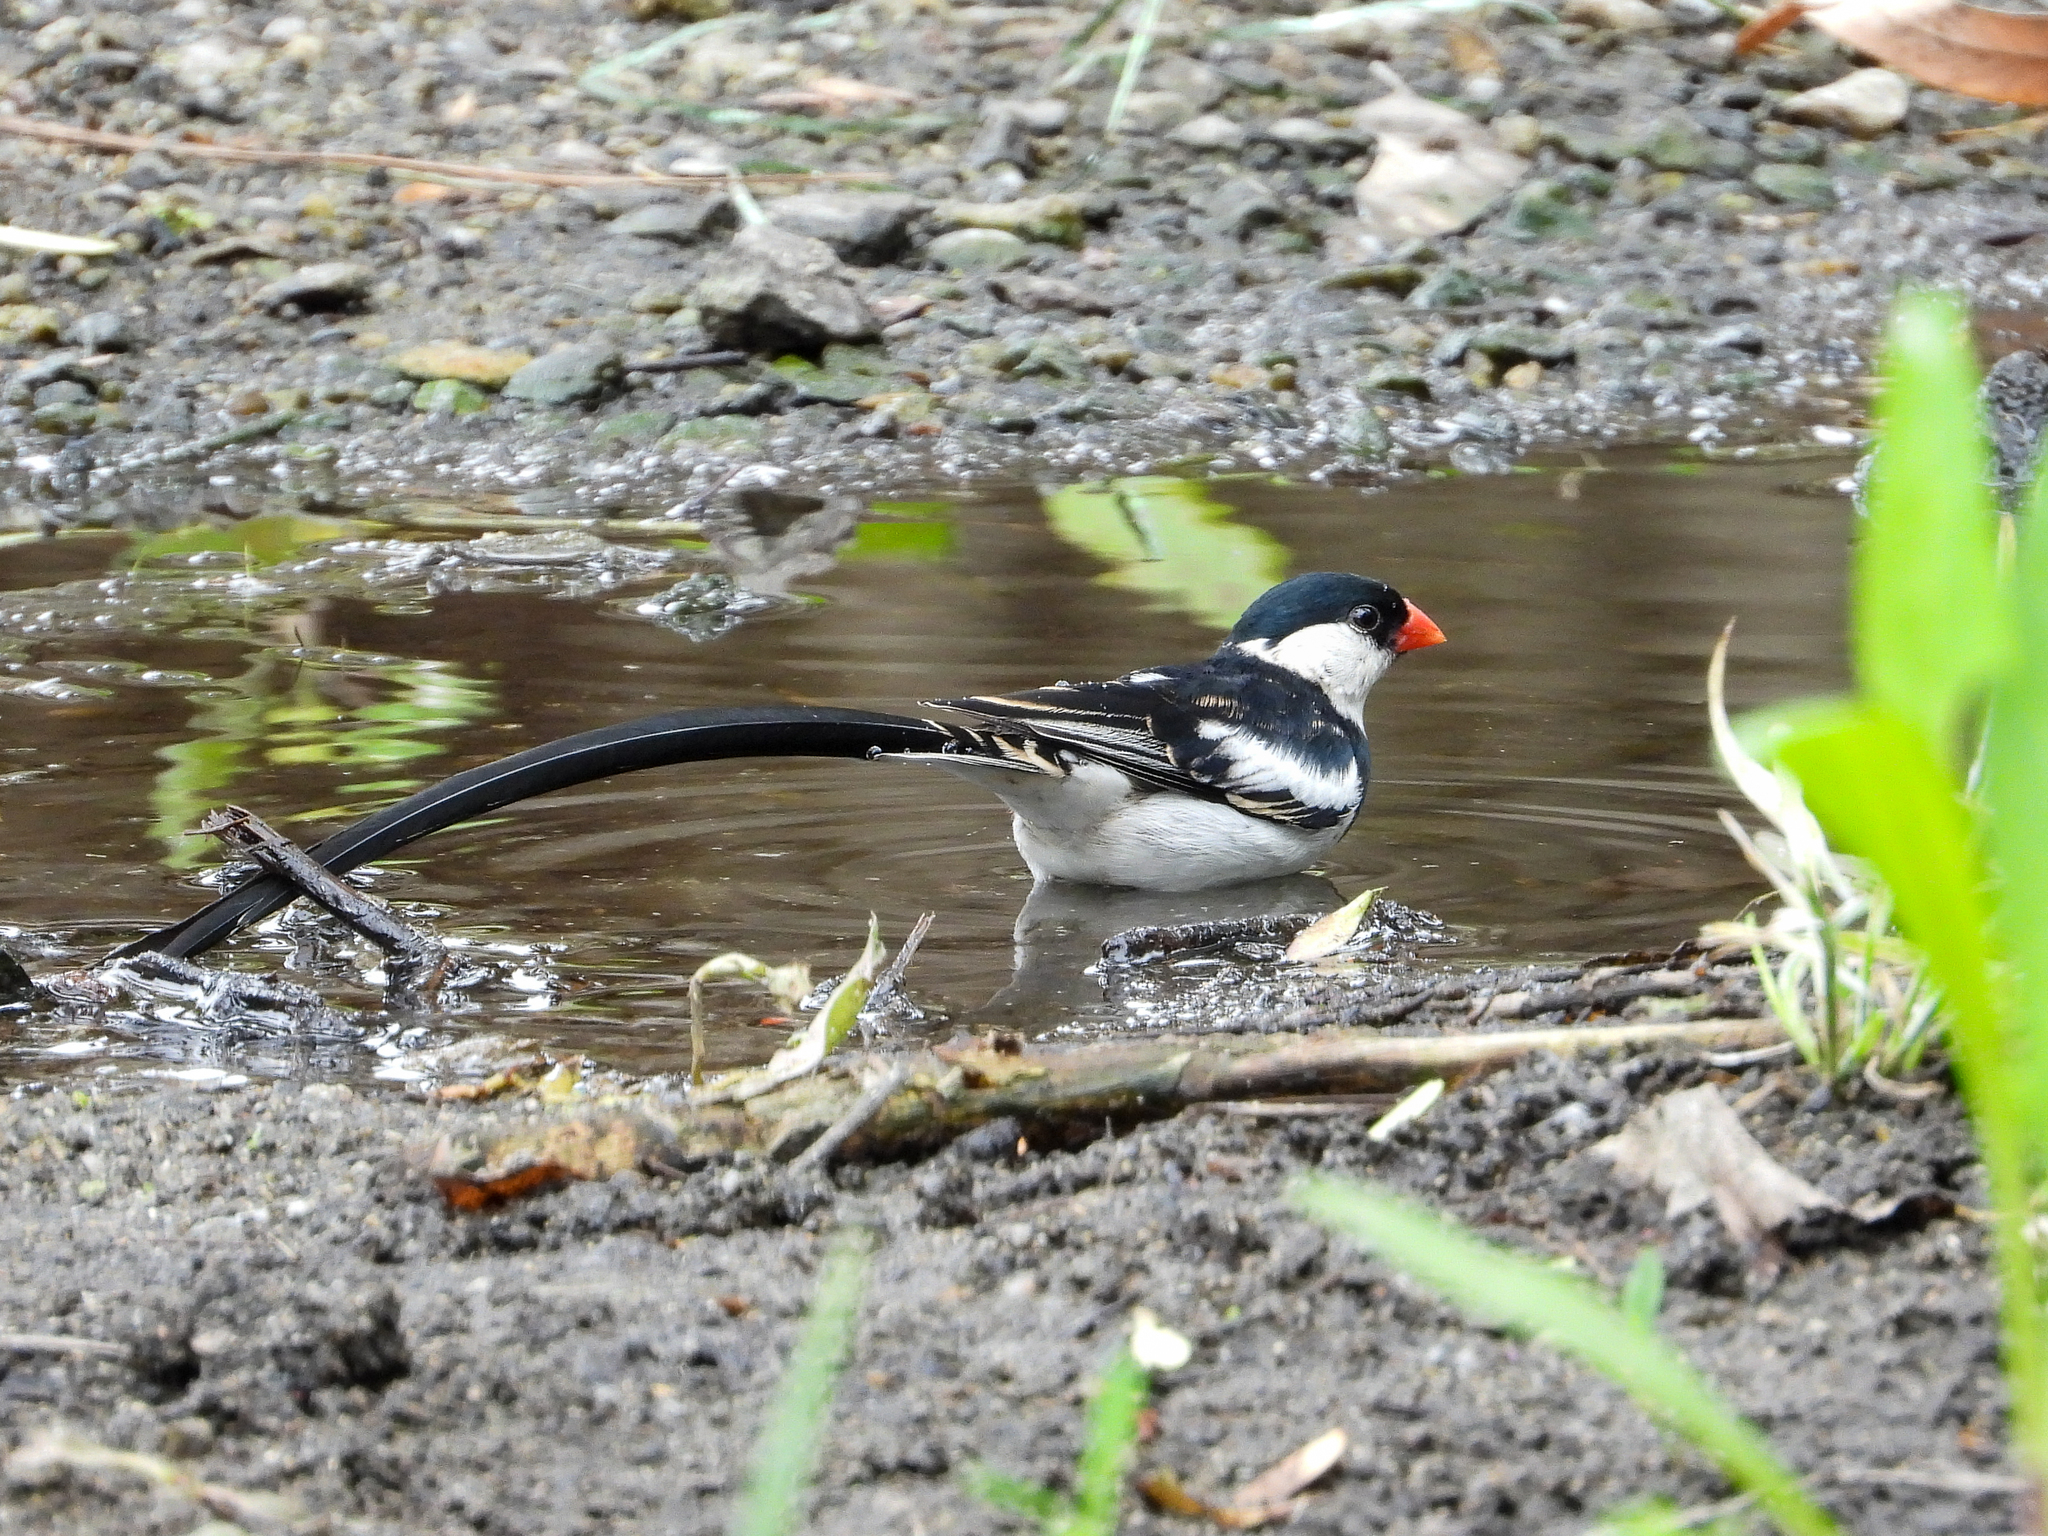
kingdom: Animalia
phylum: Chordata
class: Aves
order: Passeriformes
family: Viduidae
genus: Vidua
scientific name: Vidua macroura
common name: Pin-tailed whydah
